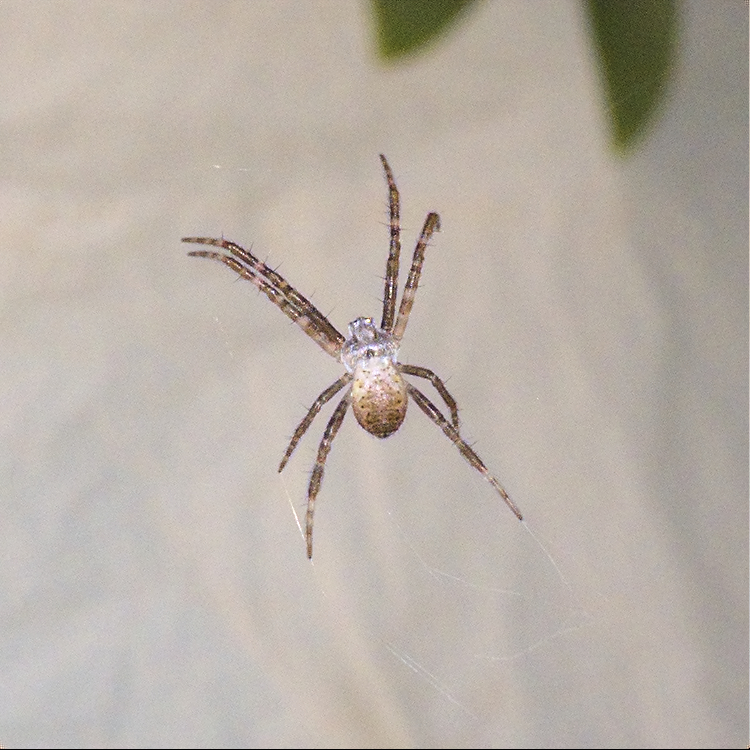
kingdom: Animalia
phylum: Arthropoda
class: Arachnida
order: Araneae
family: Araneidae
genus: Argiope
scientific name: Argiope keyserlingi
